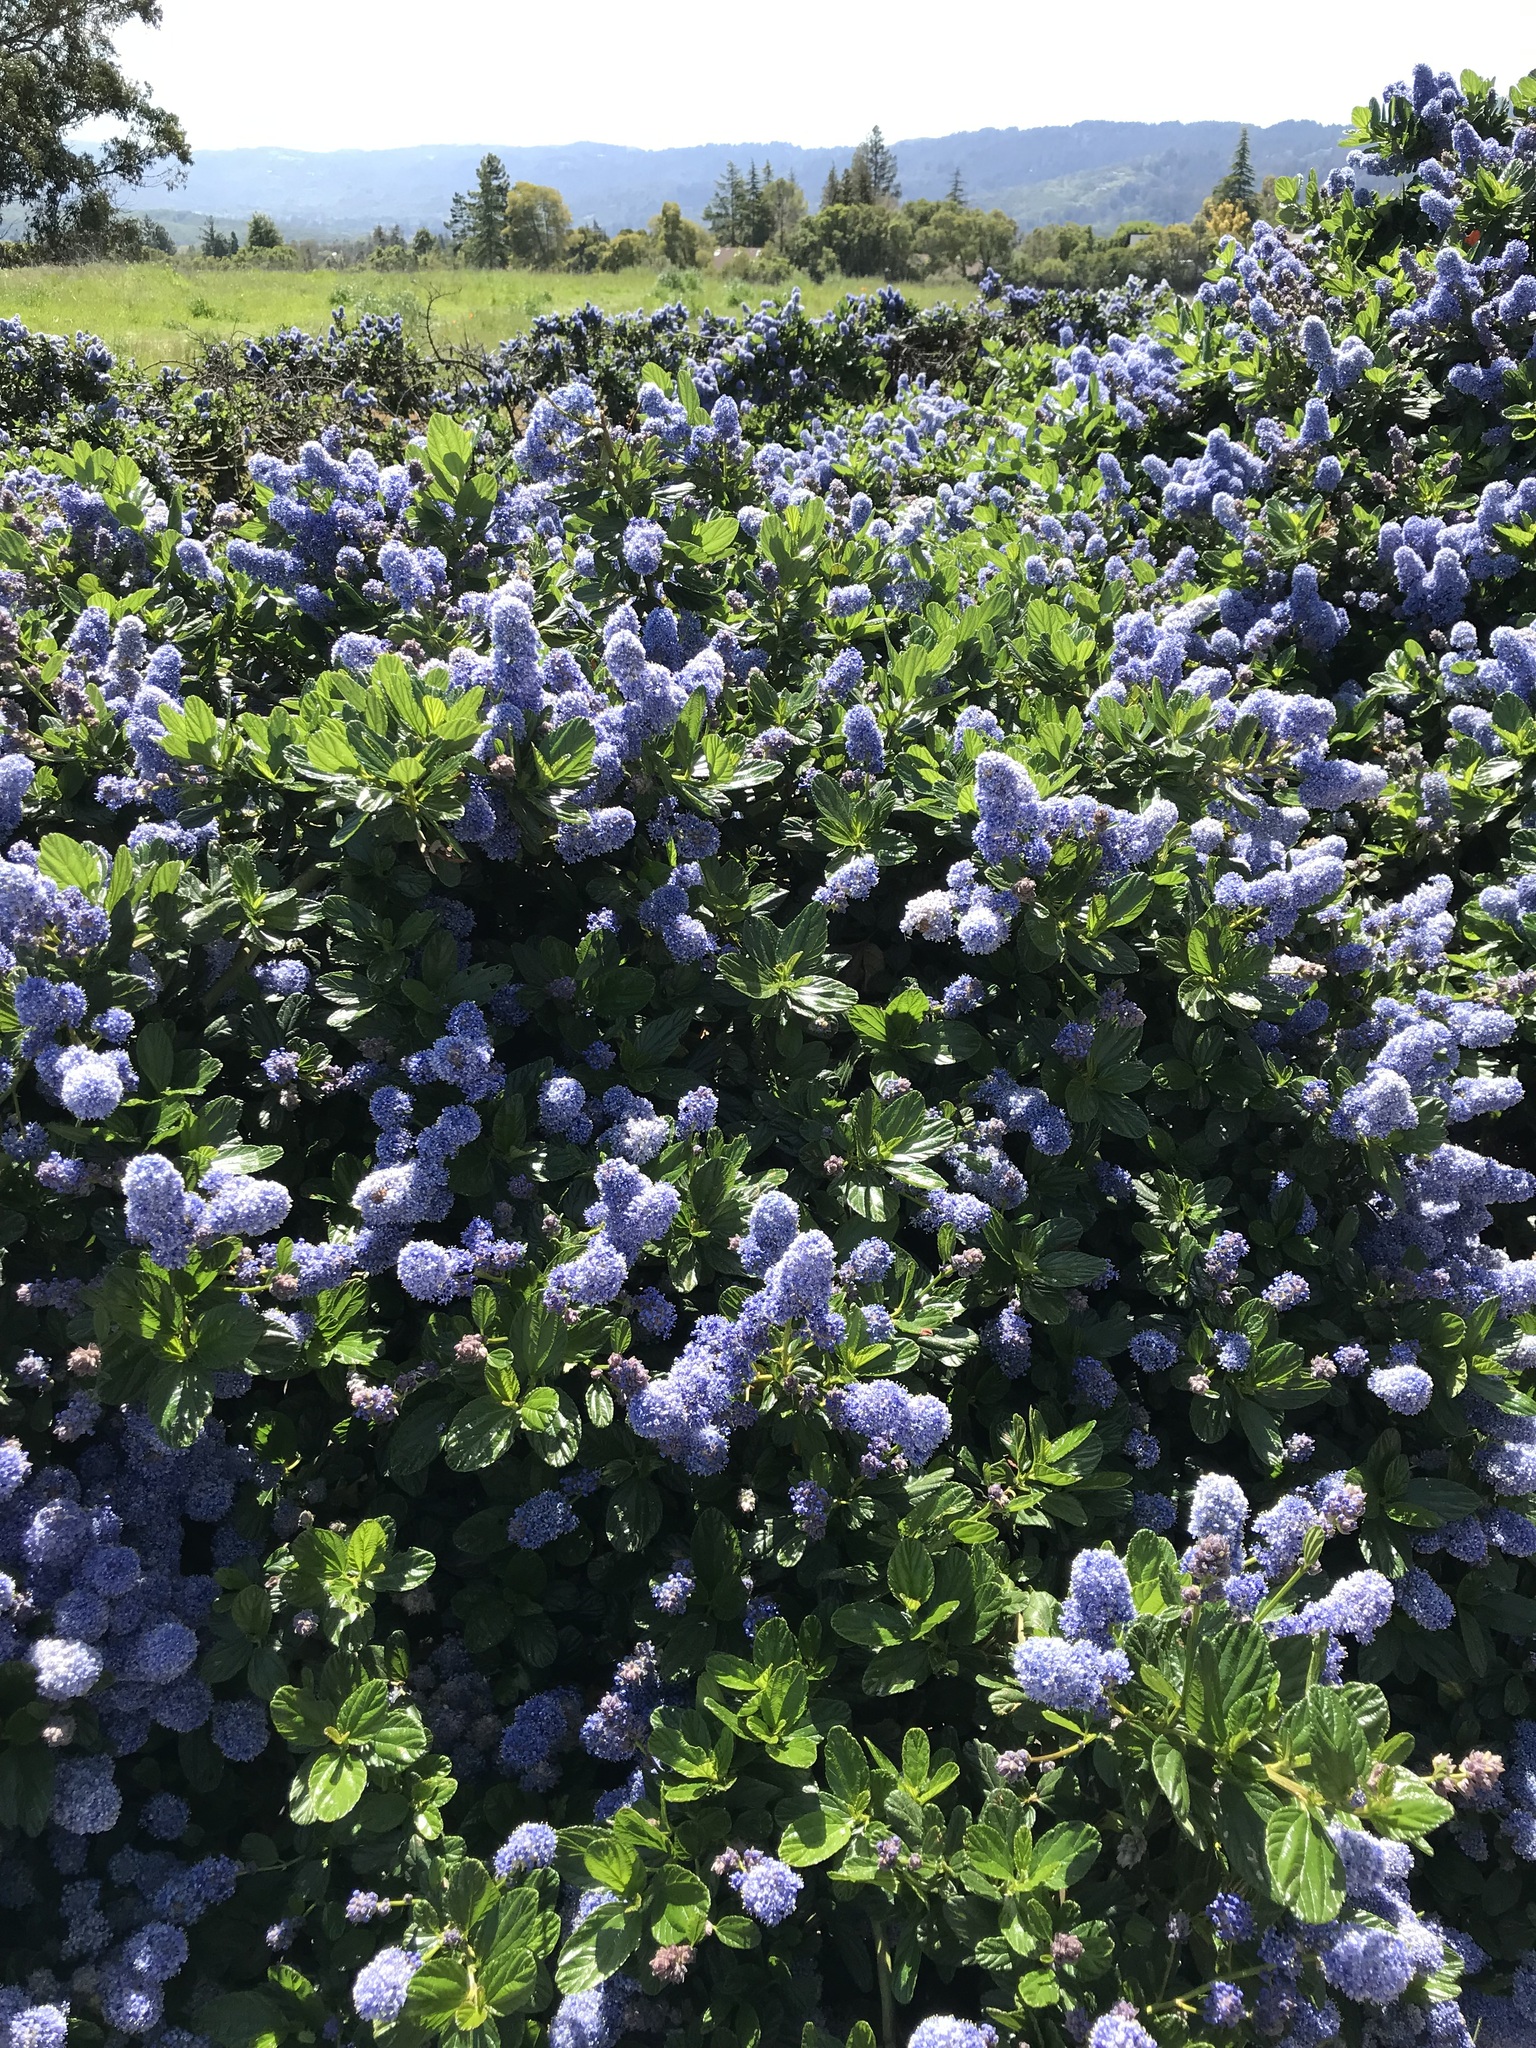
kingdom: Plantae
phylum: Tracheophyta
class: Magnoliopsida
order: Rosales
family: Rhamnaceae
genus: Ceanothus
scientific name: Ceanothus thyrsiflorus
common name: California-lilac
